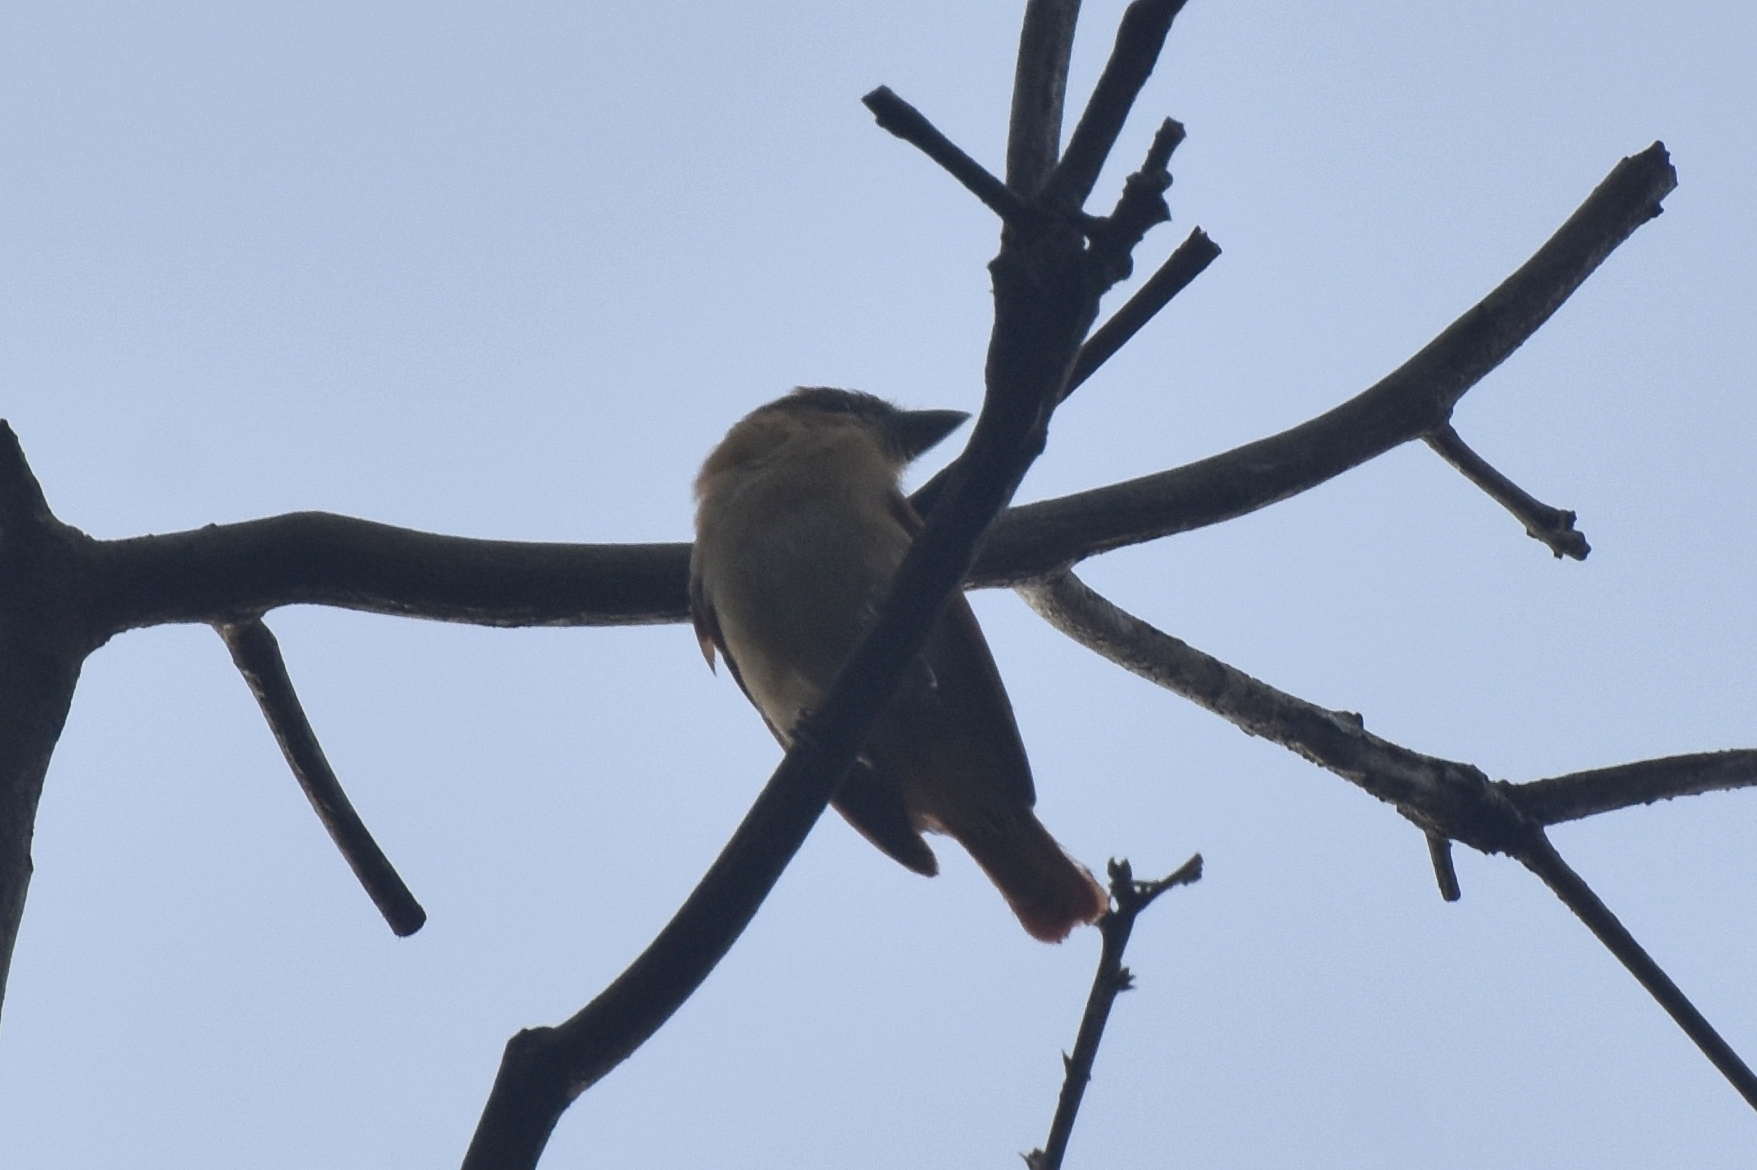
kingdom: Animalia
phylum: Chordata
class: Aves
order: Passeriformes
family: Cotingidae
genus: Pachyramphus
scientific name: Pachyramphus cinnamomeus
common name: Cinnamon becard
